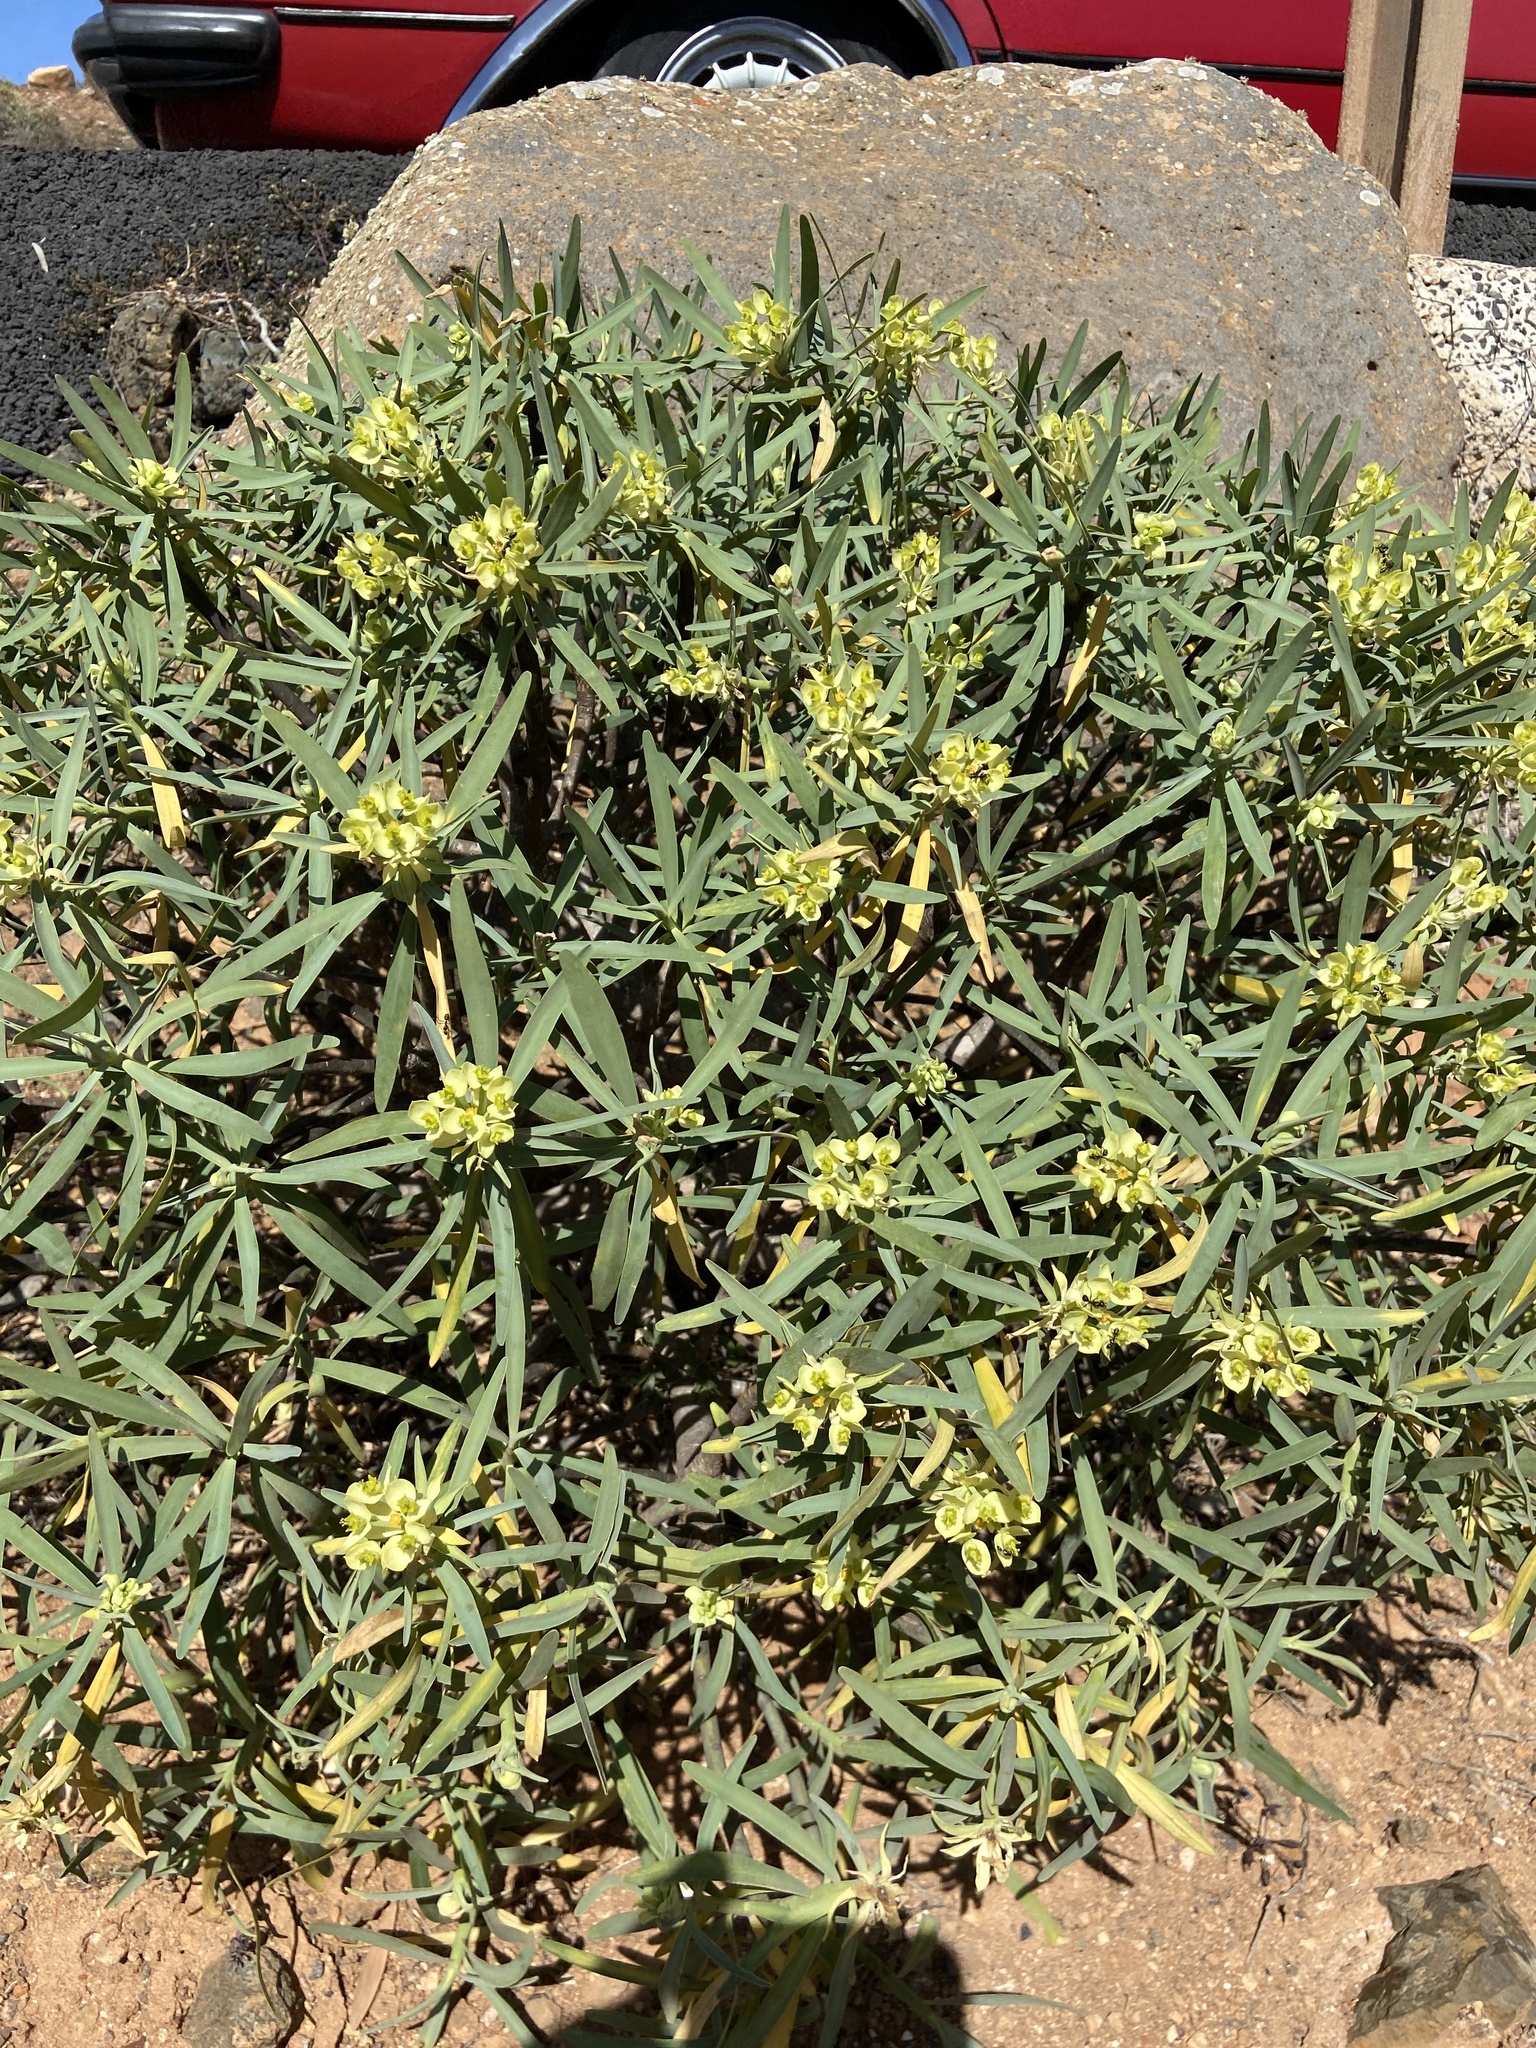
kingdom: Plantae
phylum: Tracheophyta
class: Magnoliopsida
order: Malpighiales
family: Euphorbiaceae
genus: Euphorbia
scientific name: Euphorbia regis-jubae
